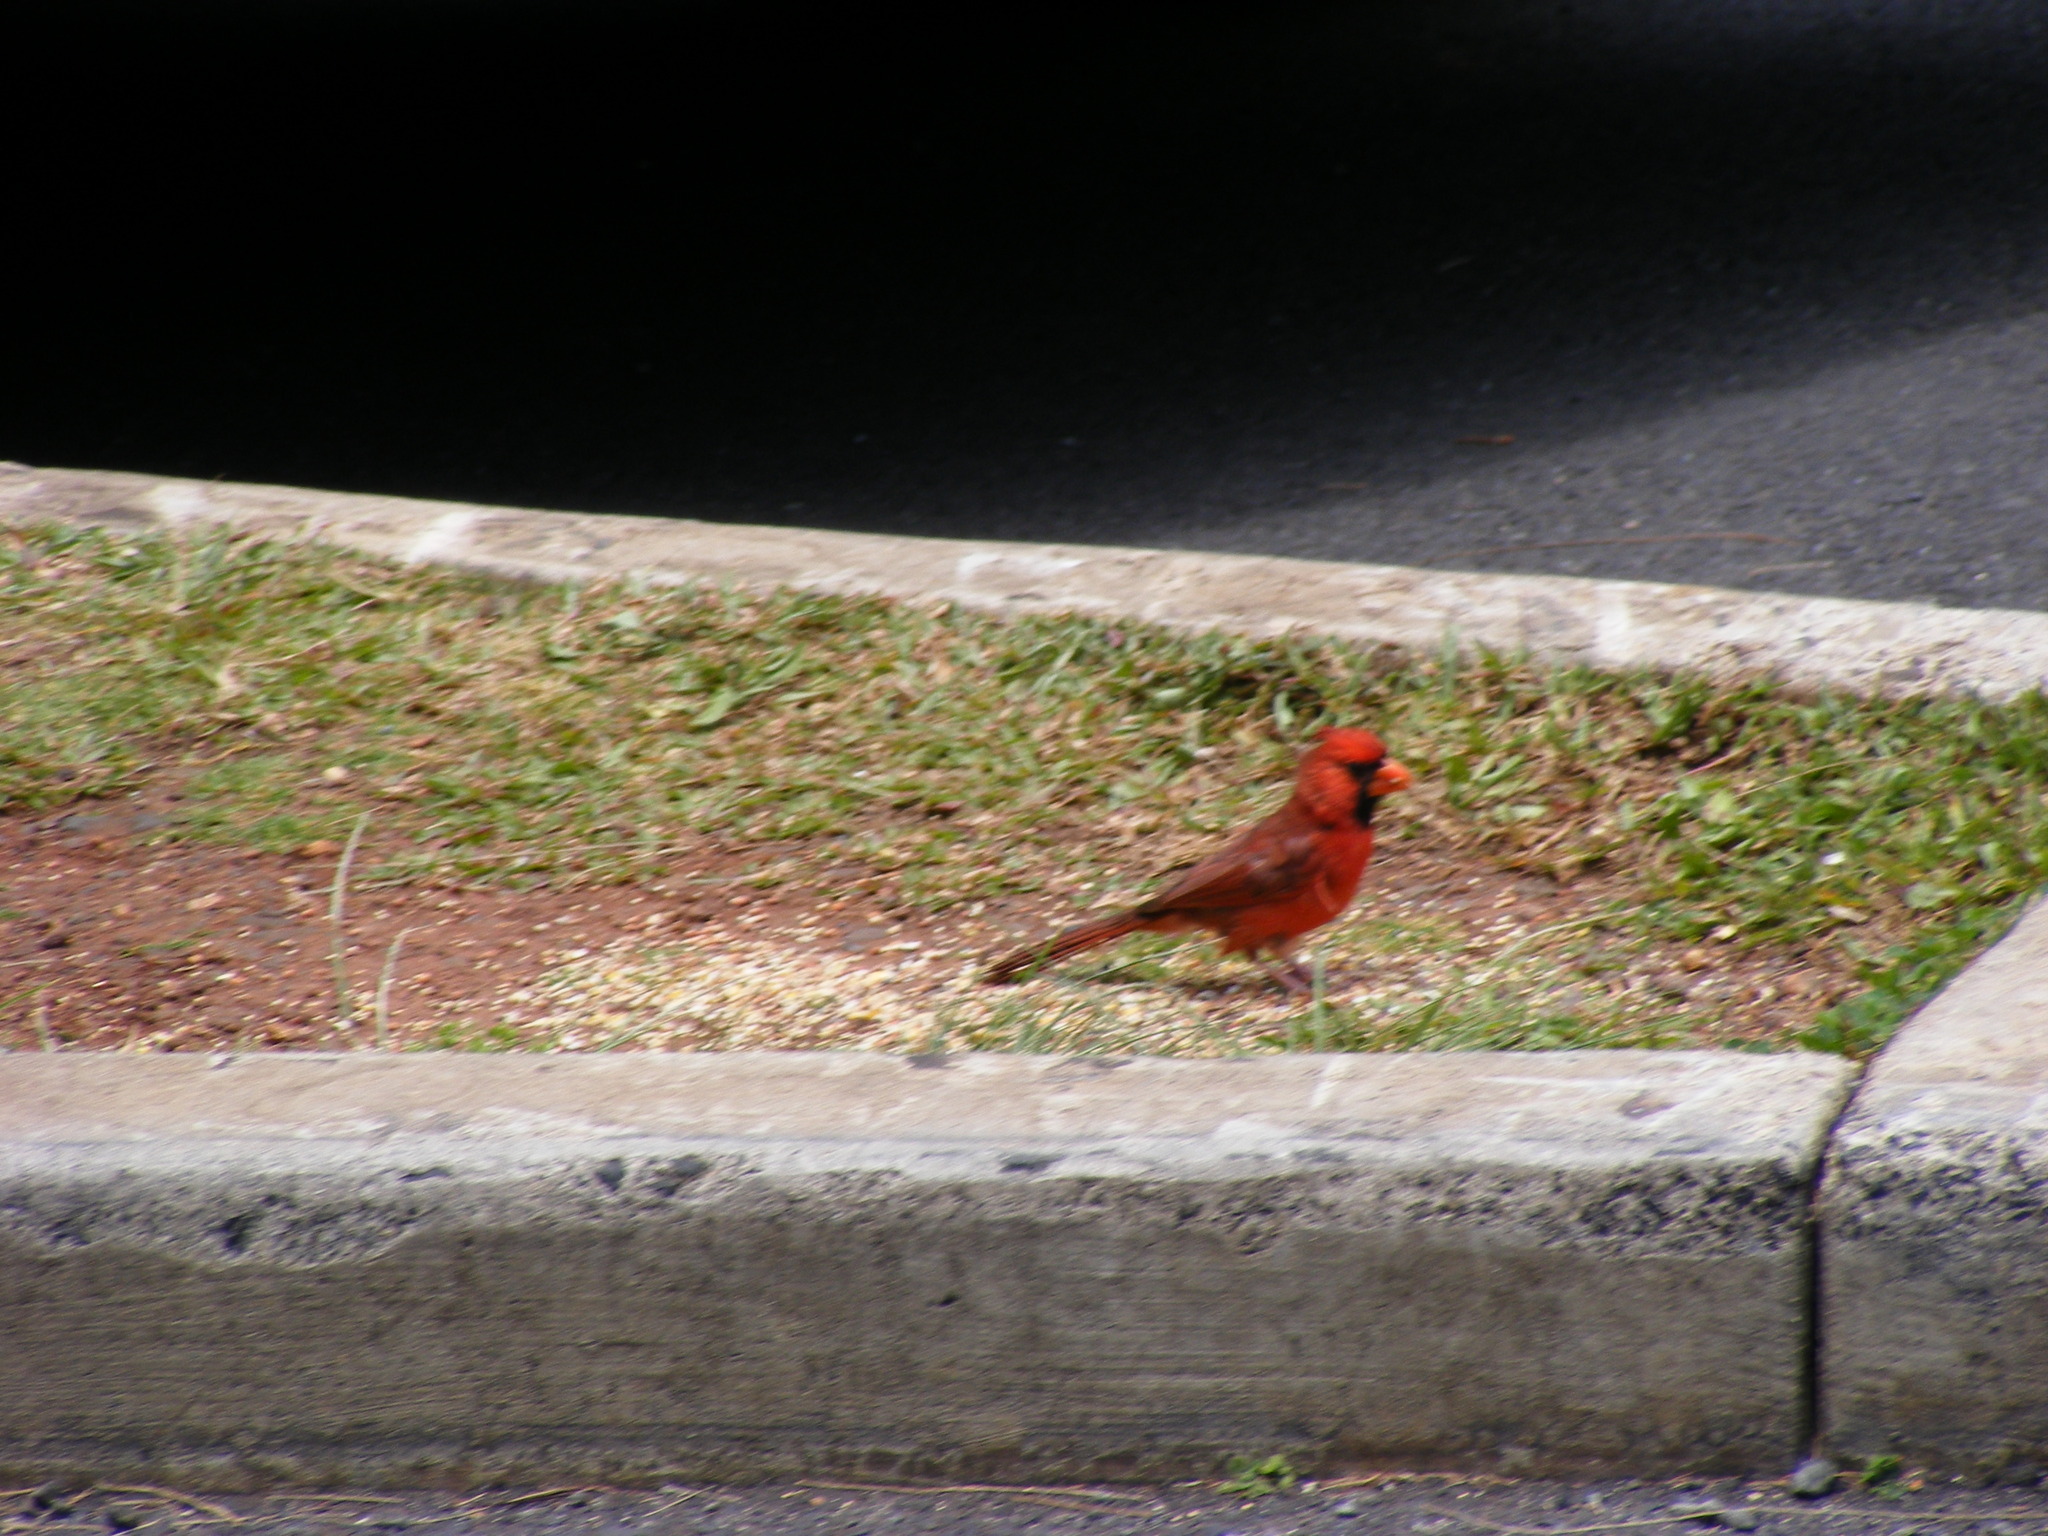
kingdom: Animalia
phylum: Chordata
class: Aves
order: Passeriformes
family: Cardinalidae
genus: Cardinalis
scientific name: Cardinalis cardinalis
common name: Northern cardinal
